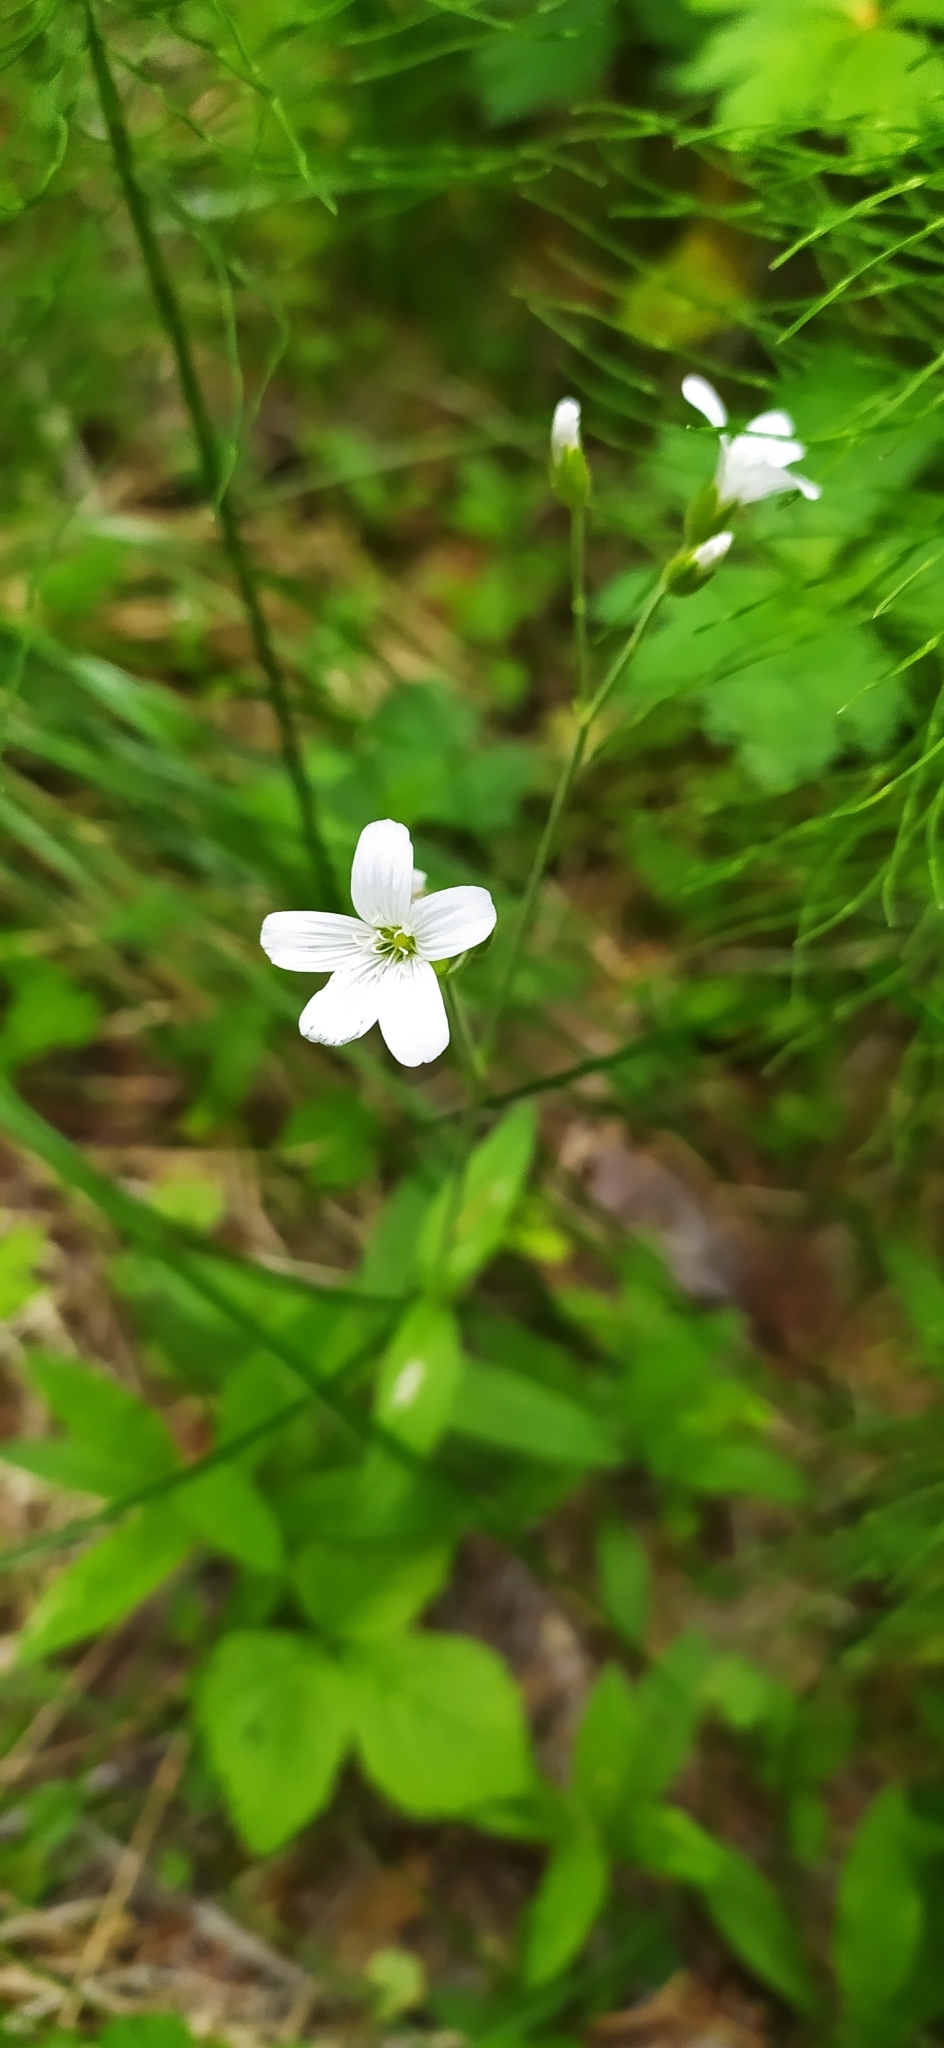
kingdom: Plantae
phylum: Tracheophyta
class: Magnoliopsida
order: Caryophyllales
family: Caryophyllaceae
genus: Cerastium
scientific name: Cerastium pauciflorum
